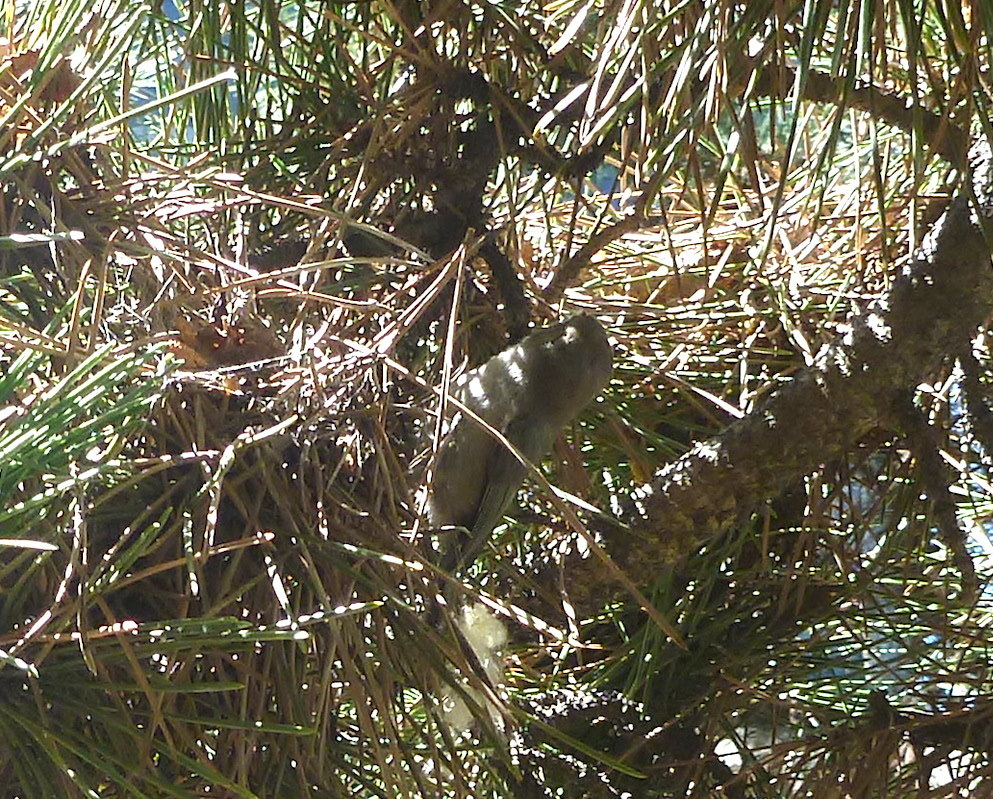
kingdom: Animalia
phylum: Chordata
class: Aves
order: Passeriformes
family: Aegithalidae
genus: Psaltriparus
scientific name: Psaltriparus minimus
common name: American bushtit
